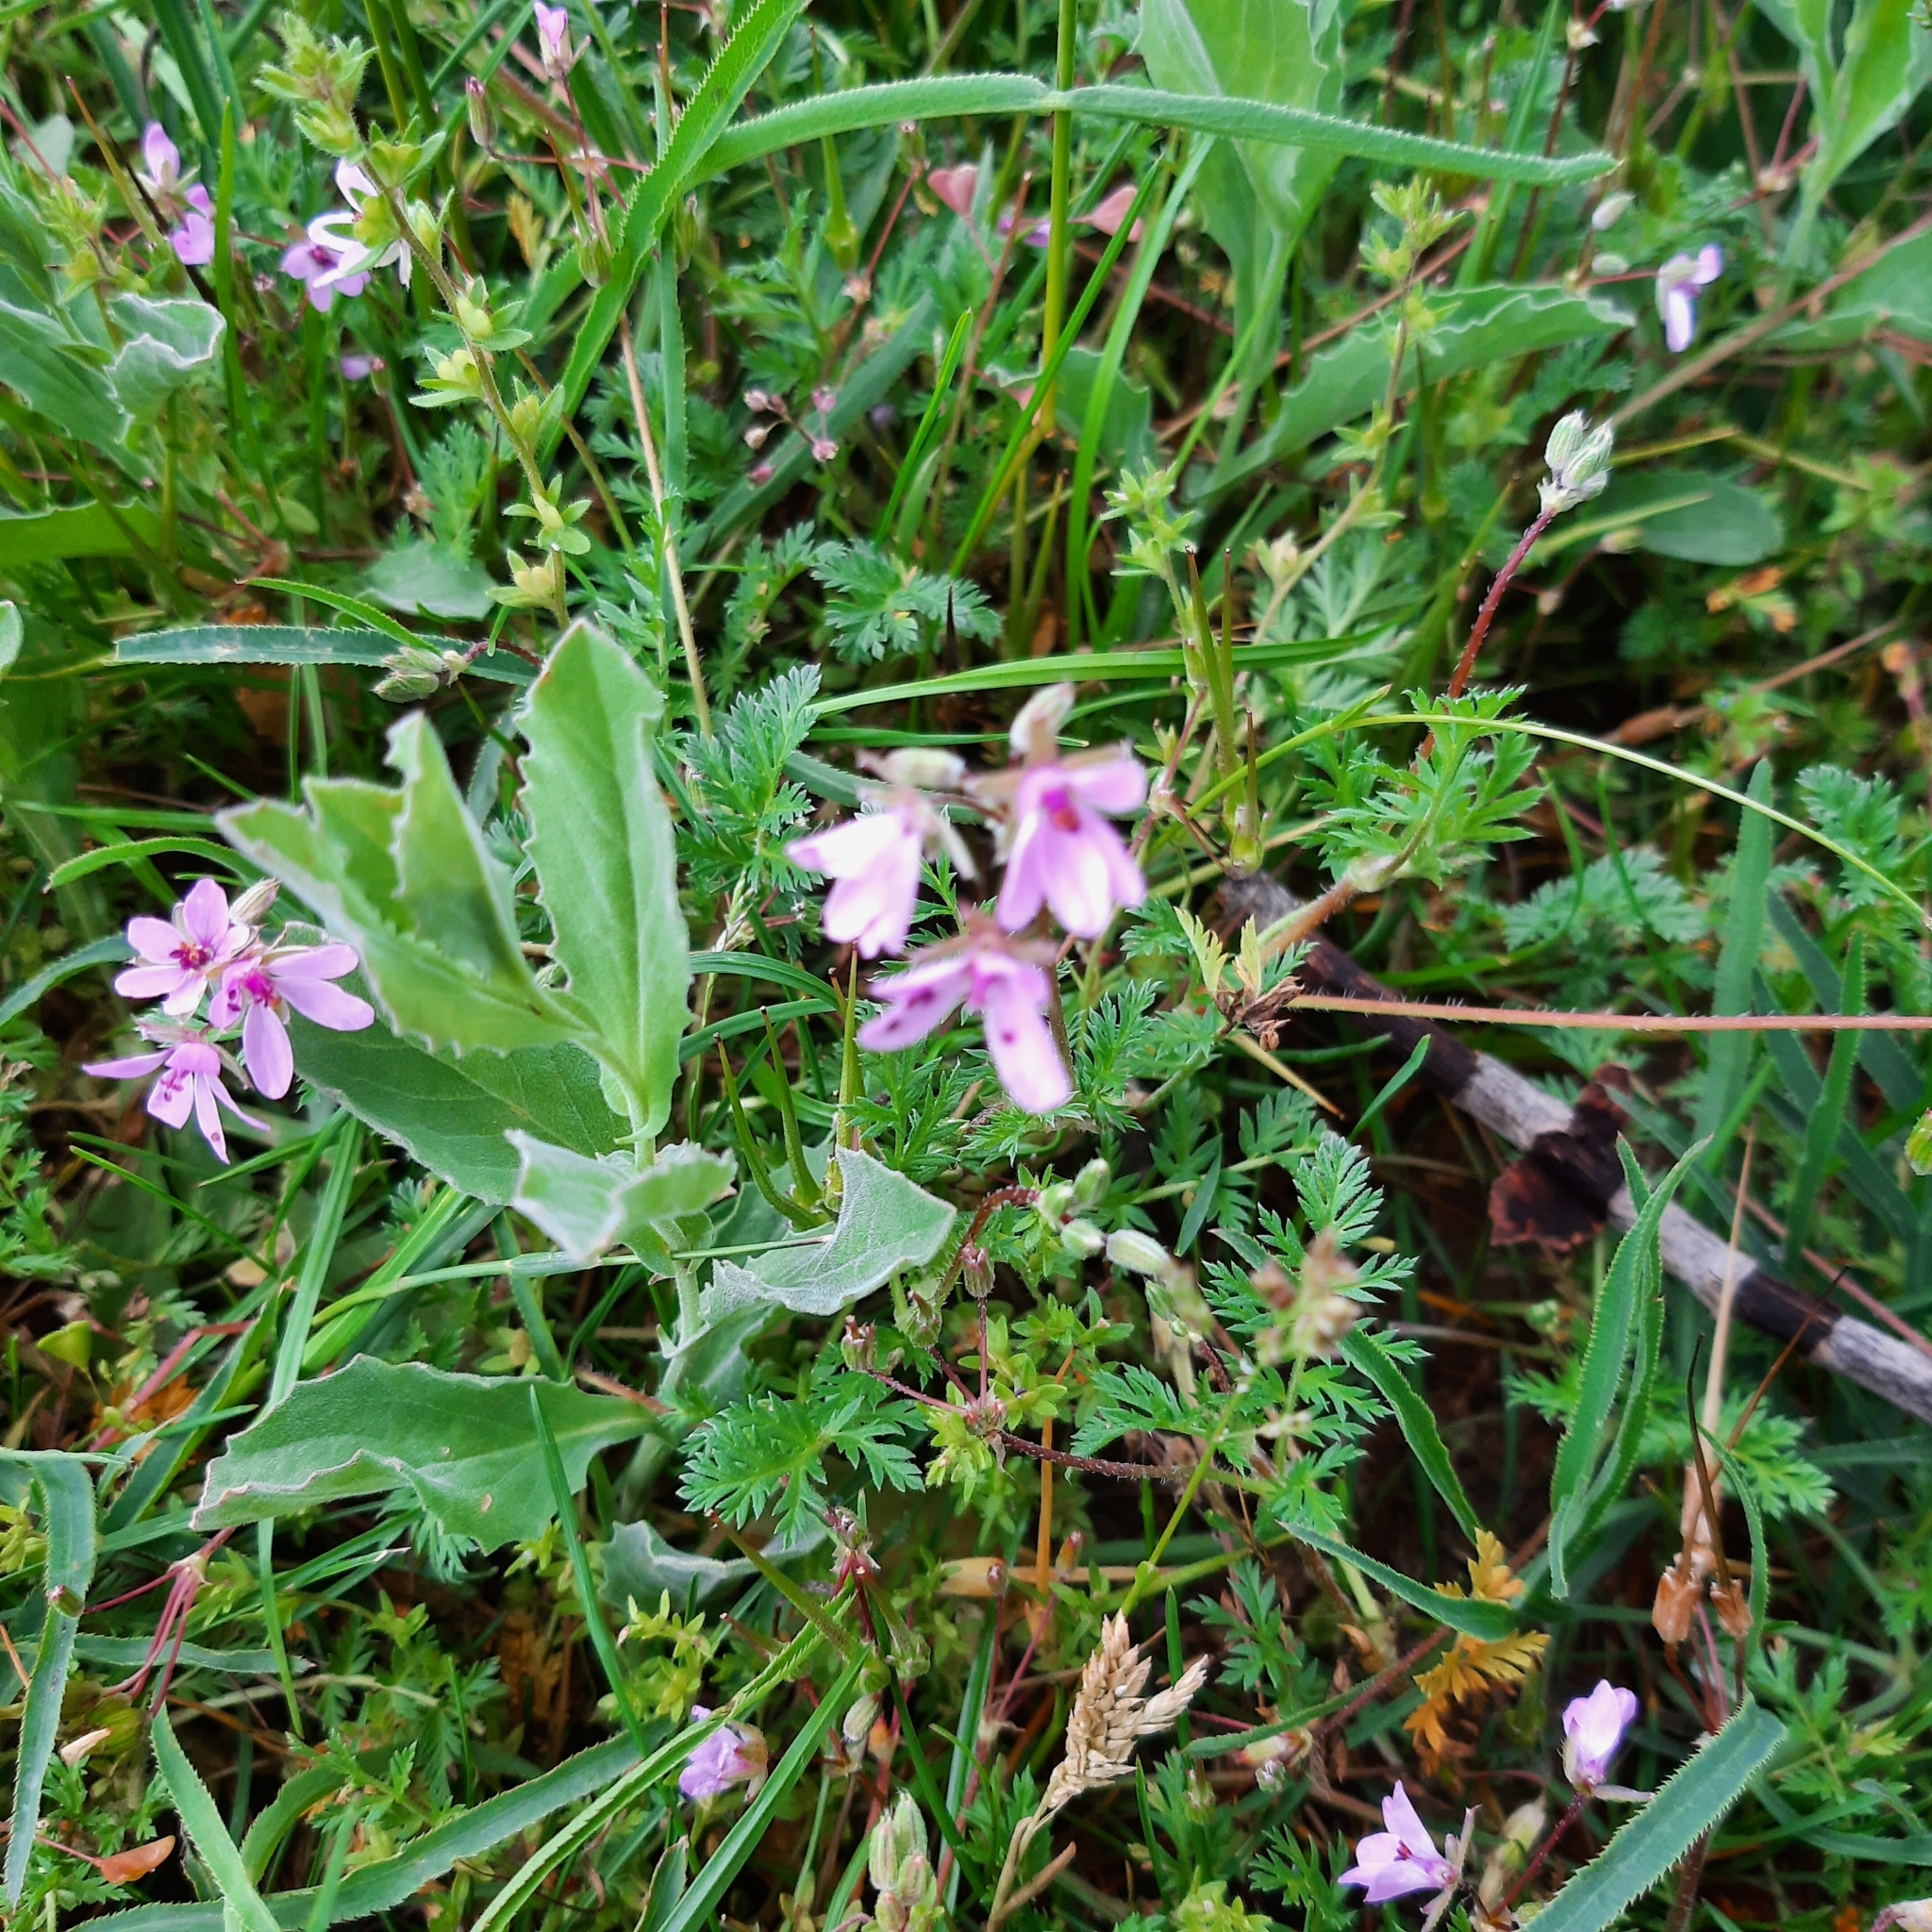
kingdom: Plantae
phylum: Tracheophyta
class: Magnoliopsida
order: Geraniales
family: Geraniaceae
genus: Erodium
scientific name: Erodium cicutarium
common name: Common stork's-bill
